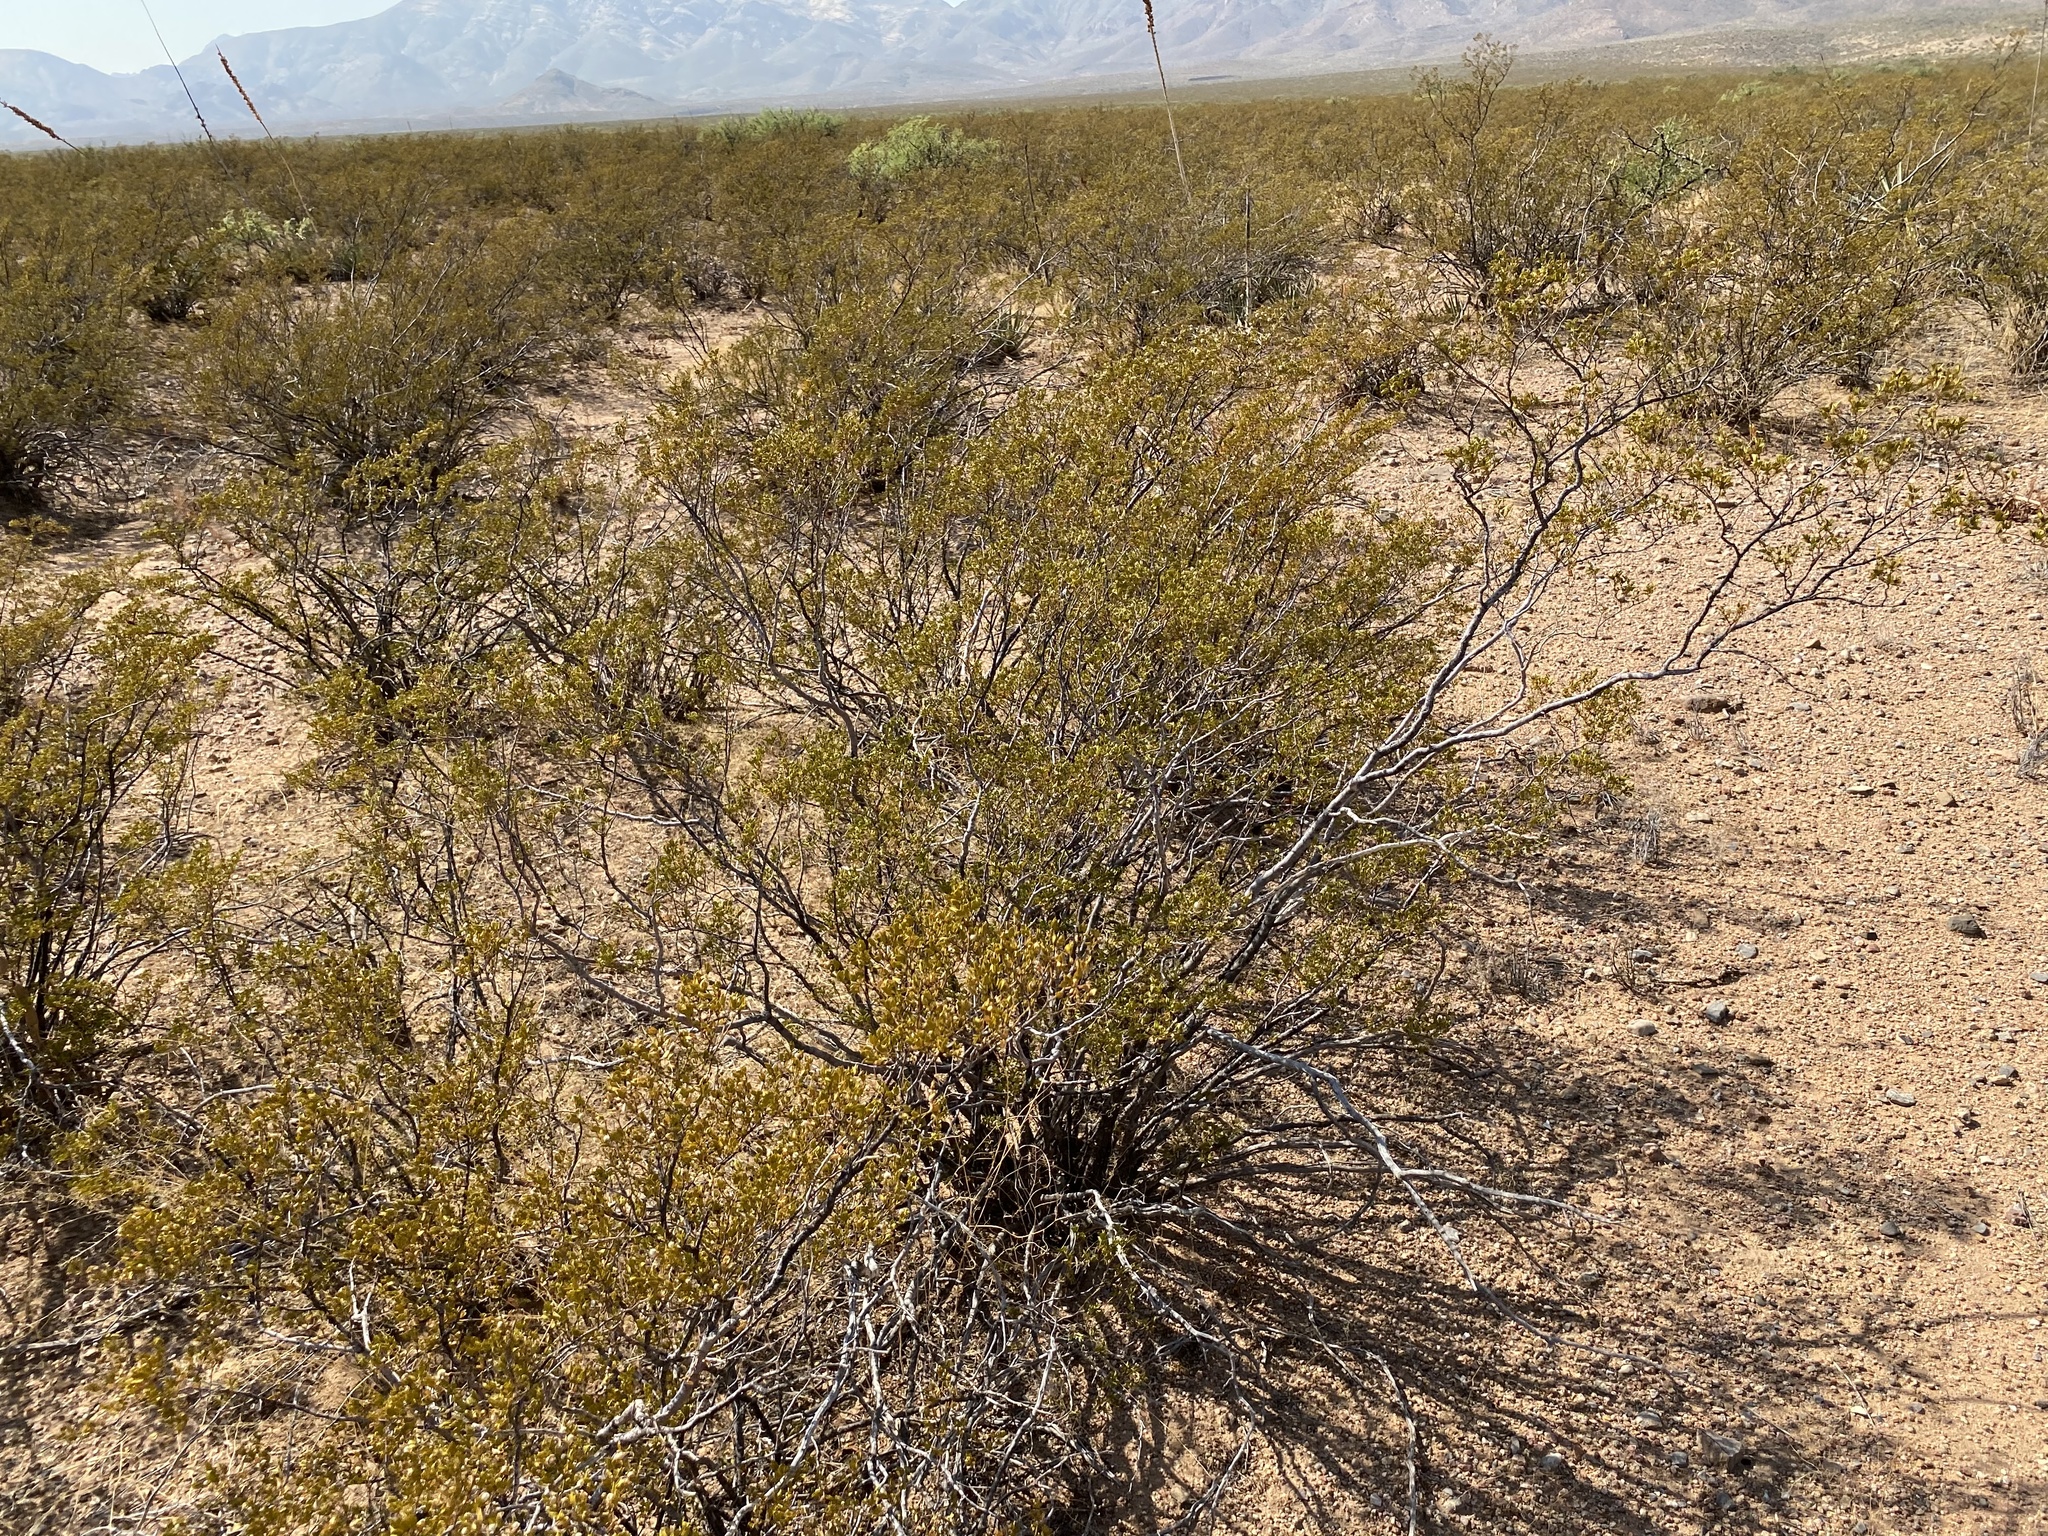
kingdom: Plantae
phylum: Tracheophyta
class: Magnoliopsida
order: Zygophyllales
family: Zygophyllaceae
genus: Larrea
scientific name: Larrea tridentata
